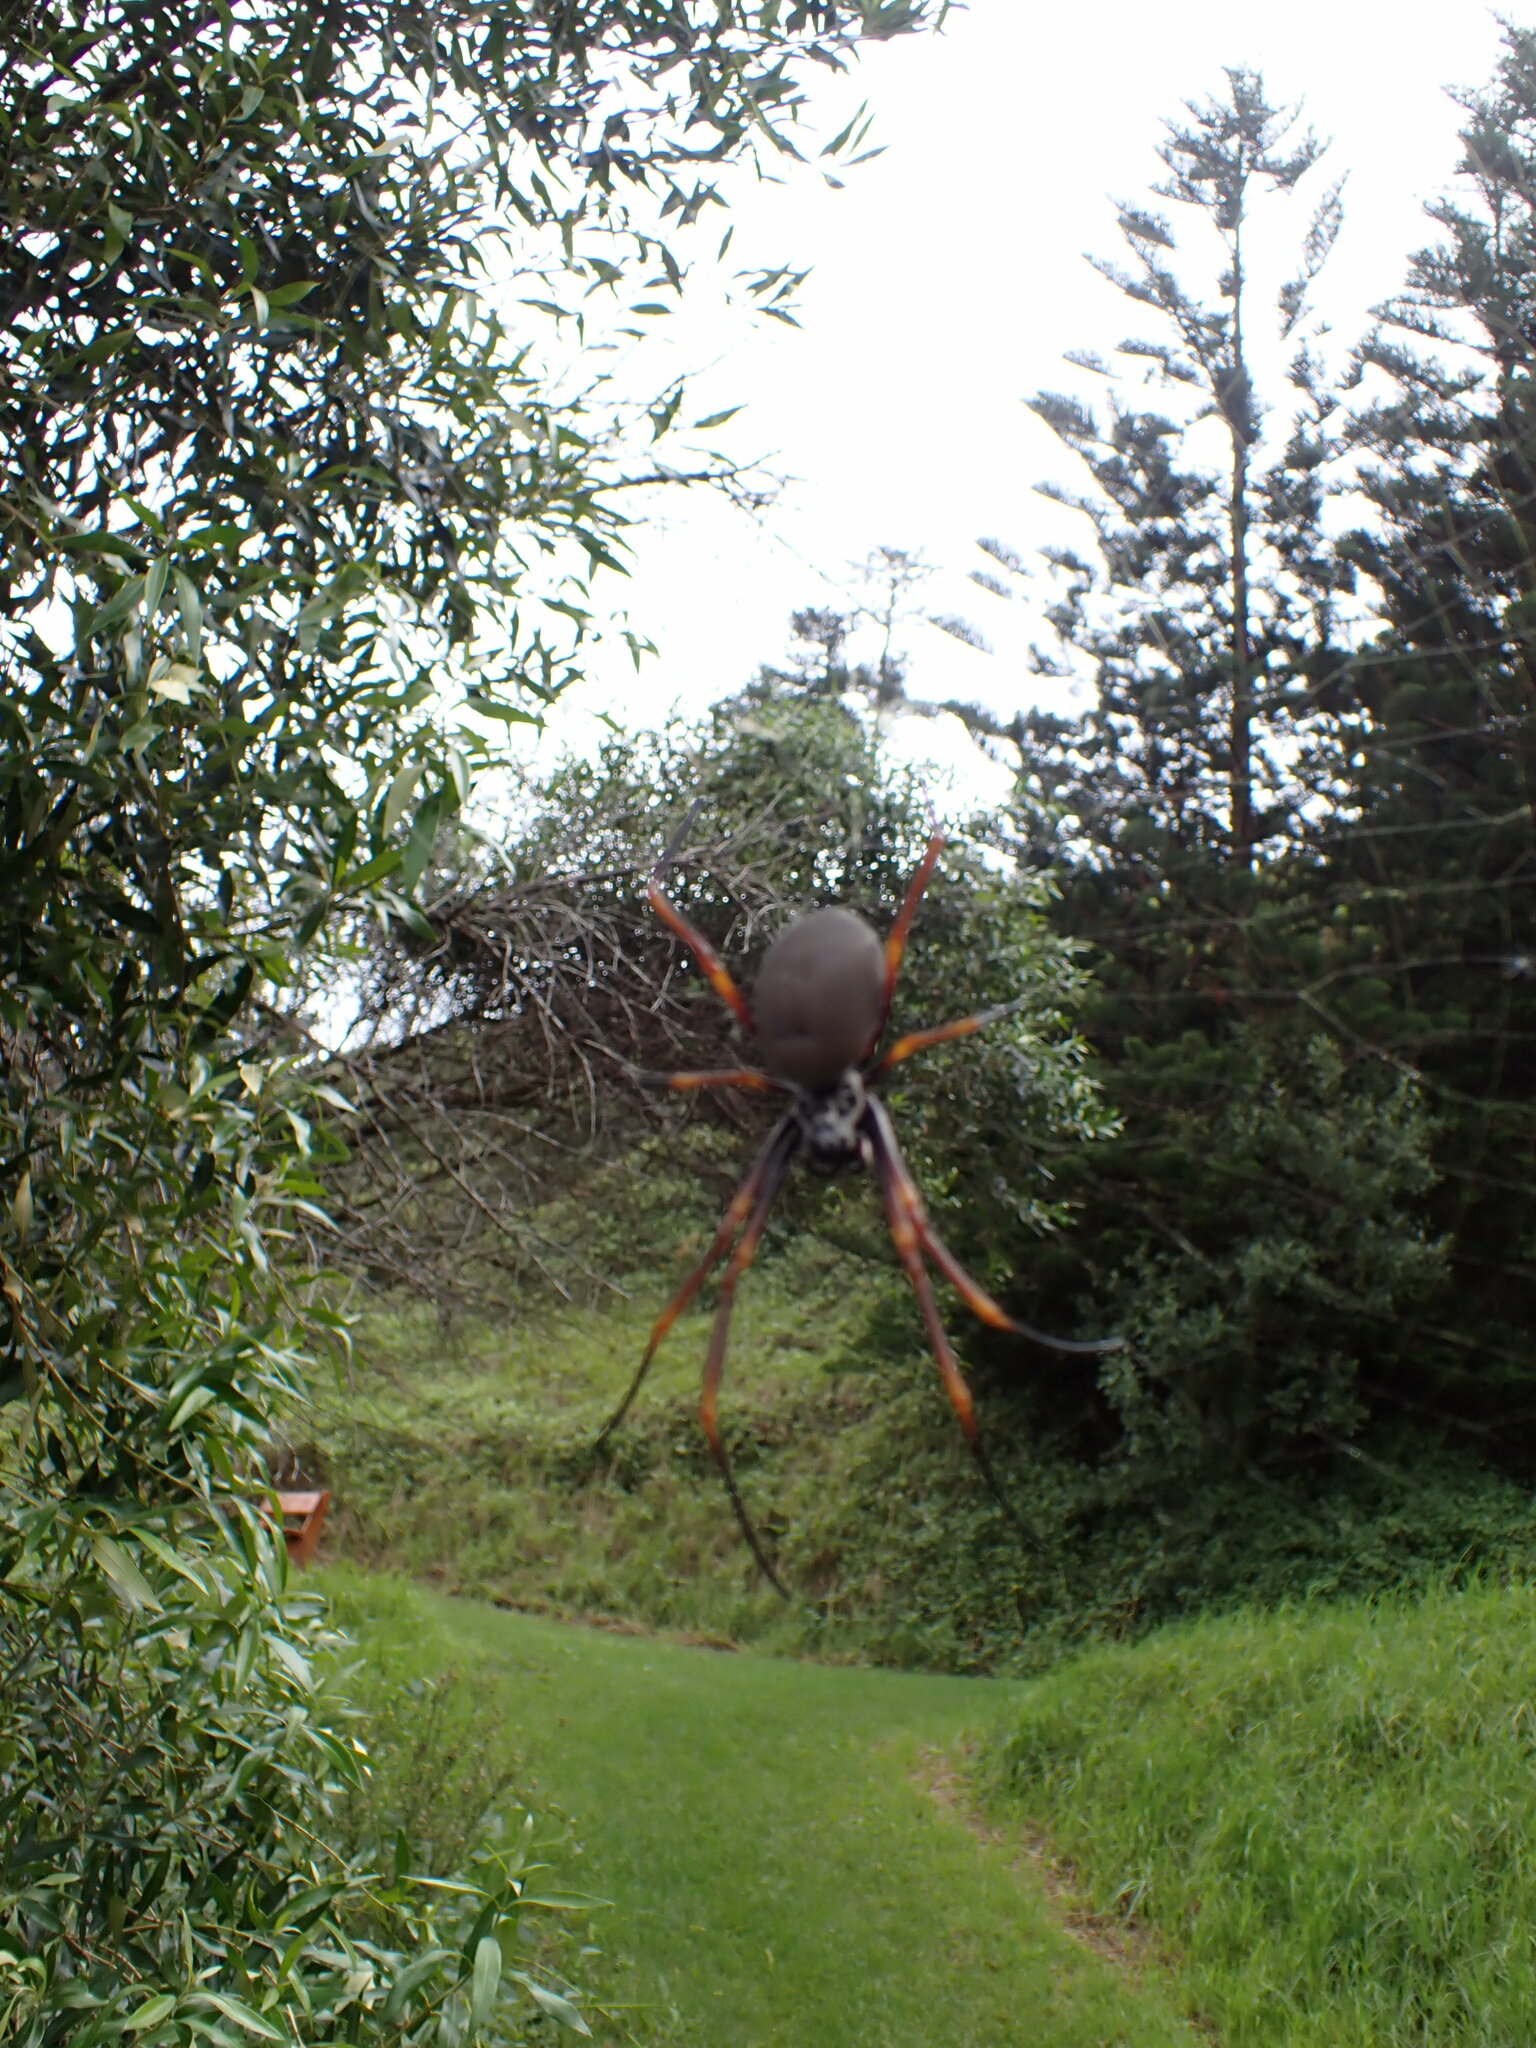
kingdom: Animalia
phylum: Arthropoda
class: Arachnida
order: Araneae
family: Araneidae
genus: Trichonephila
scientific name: Trichonephila plumipes
